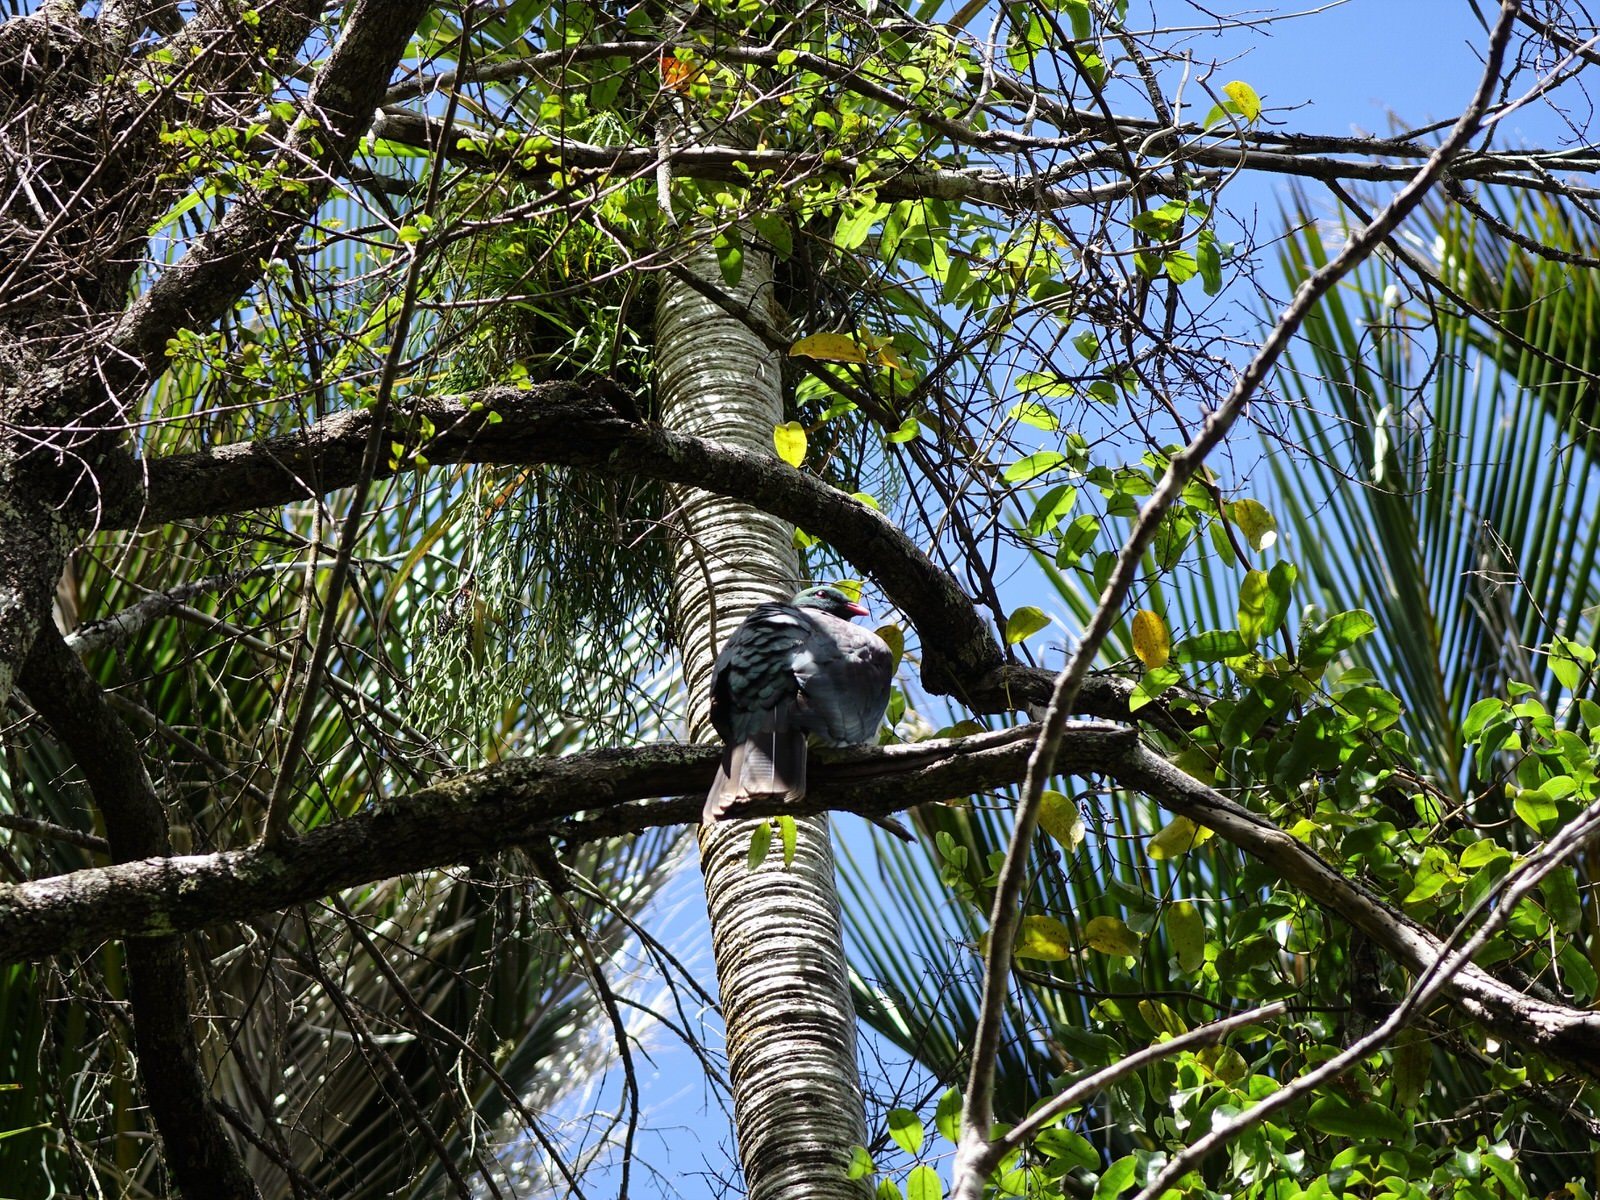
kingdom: Animalia
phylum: Chordata
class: Aves
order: Columbiformes
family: Columbidae
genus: Hemiphaga
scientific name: Hemiphaga novaeseelandiae
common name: New zealand pigeon
